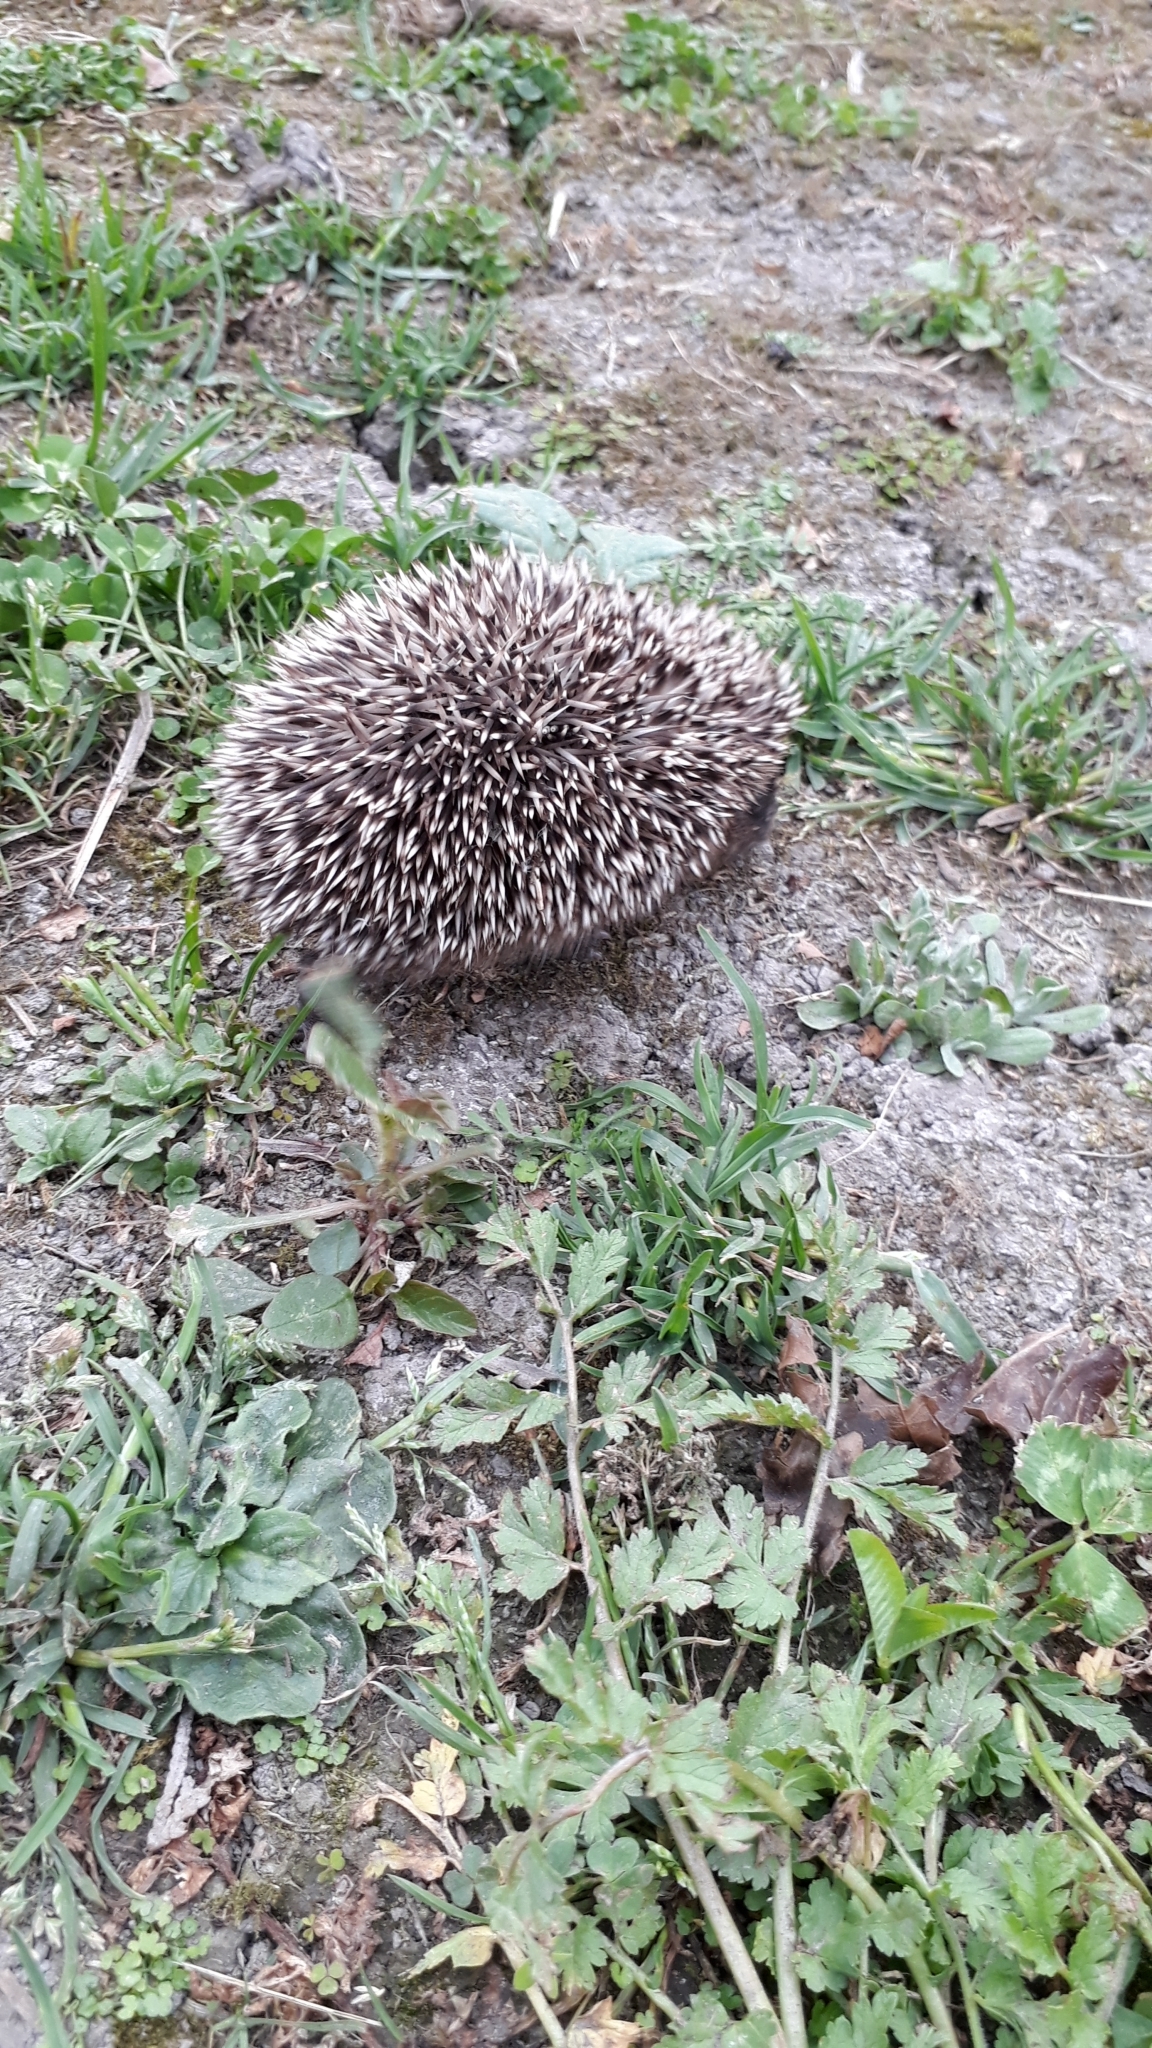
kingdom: Animalia
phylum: Chordata
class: Mammalia
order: Erinaceomorpha
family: Erinaceidae
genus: Erinaceus
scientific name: Erinaceus europaeus
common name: West european hedgehog
